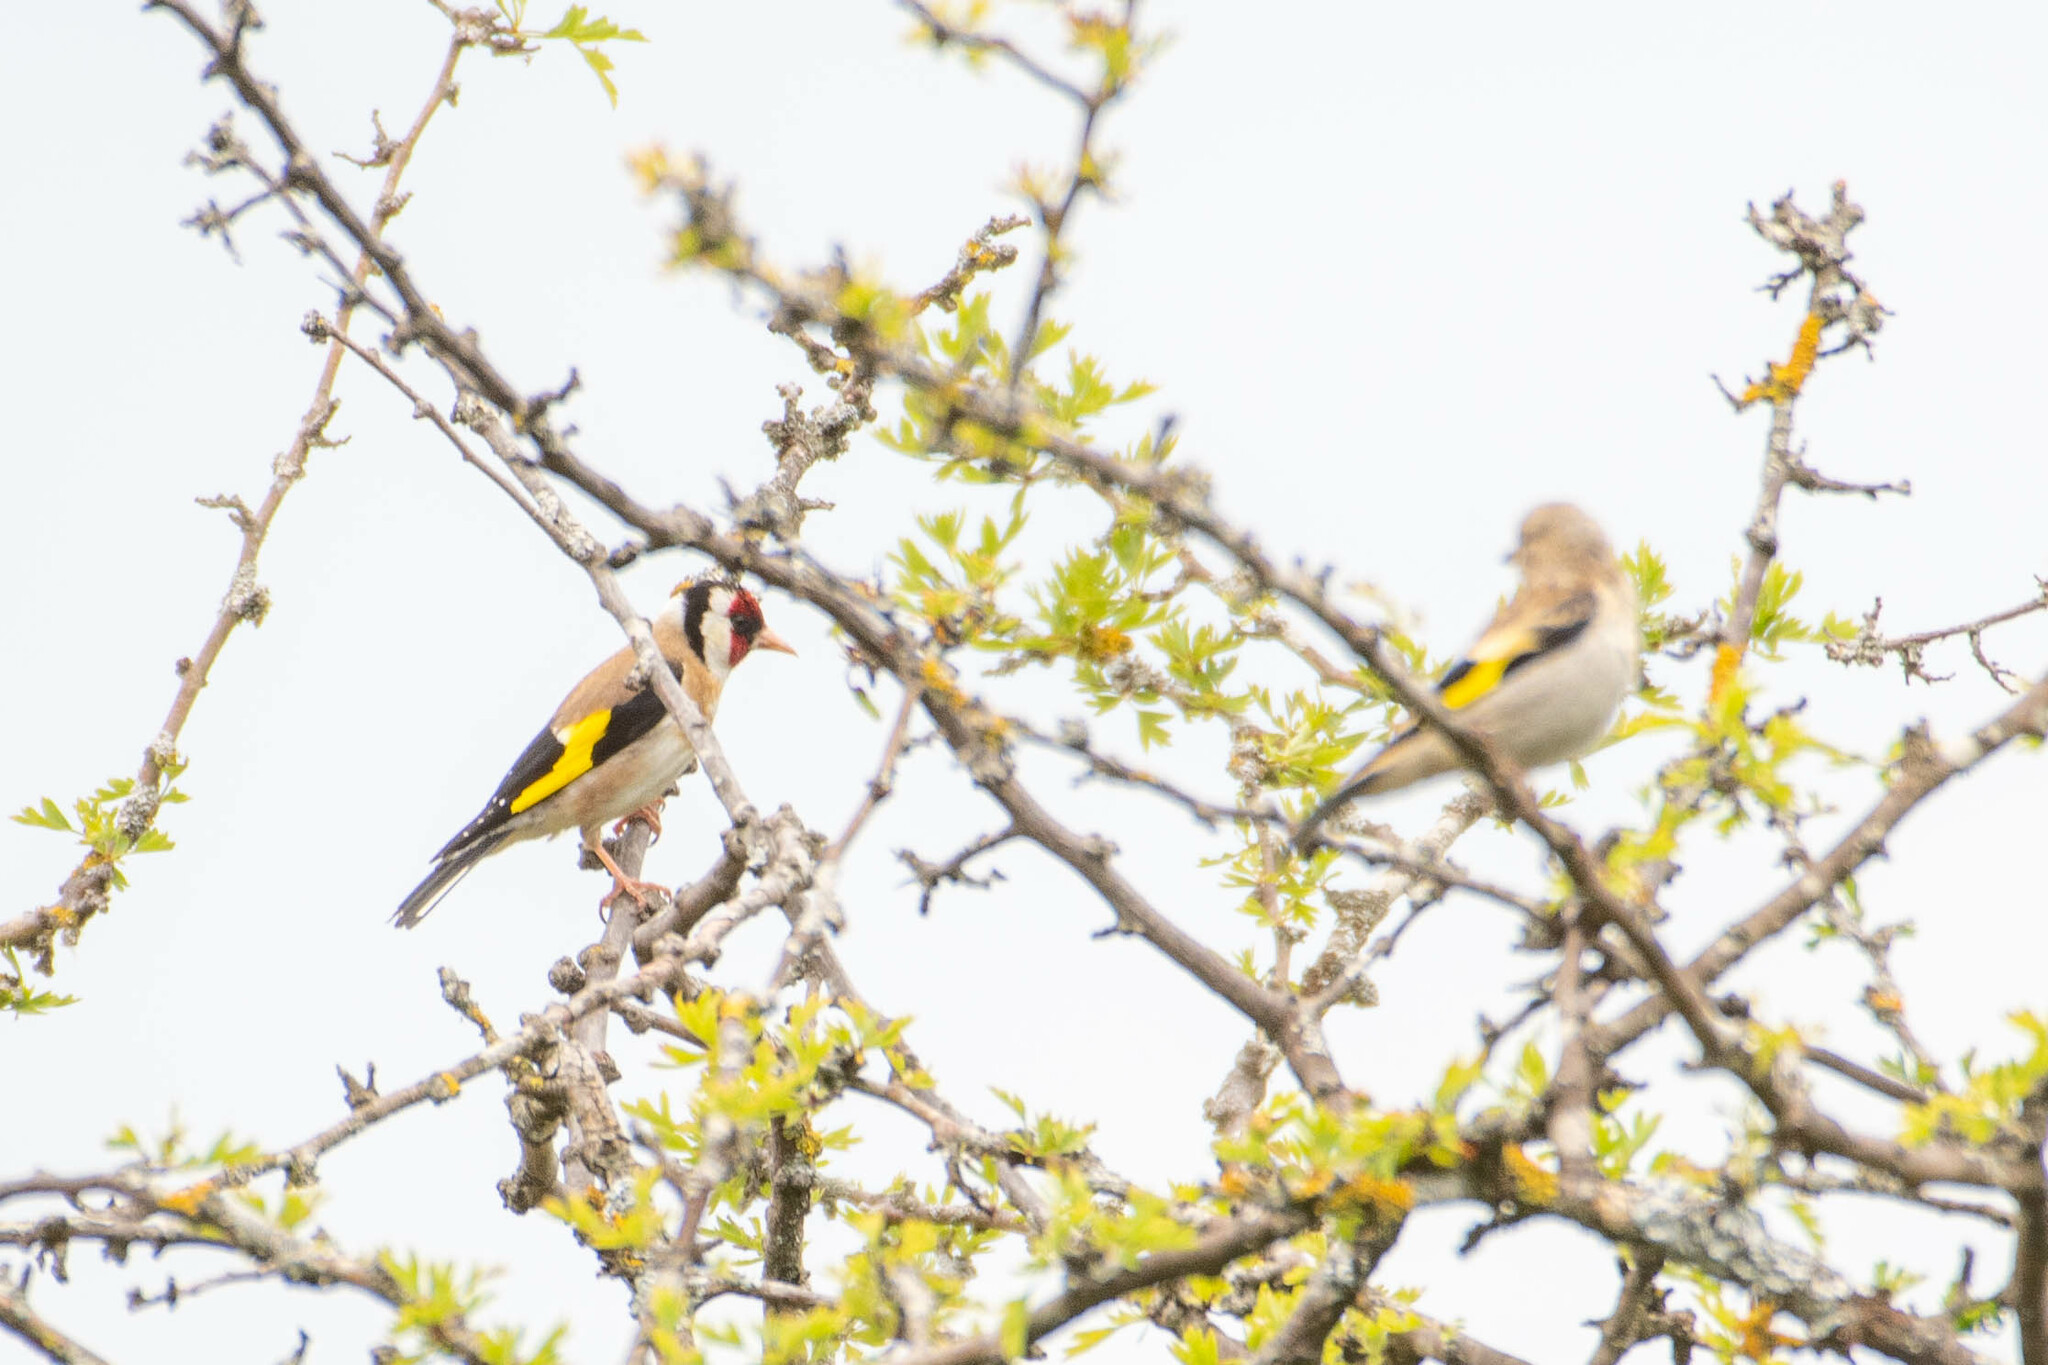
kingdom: Animalia
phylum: Chordata
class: Aves
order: Passeriformes
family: Fringillidae
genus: Carduelis
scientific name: Carduelis carduelis
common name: European goldfinch
